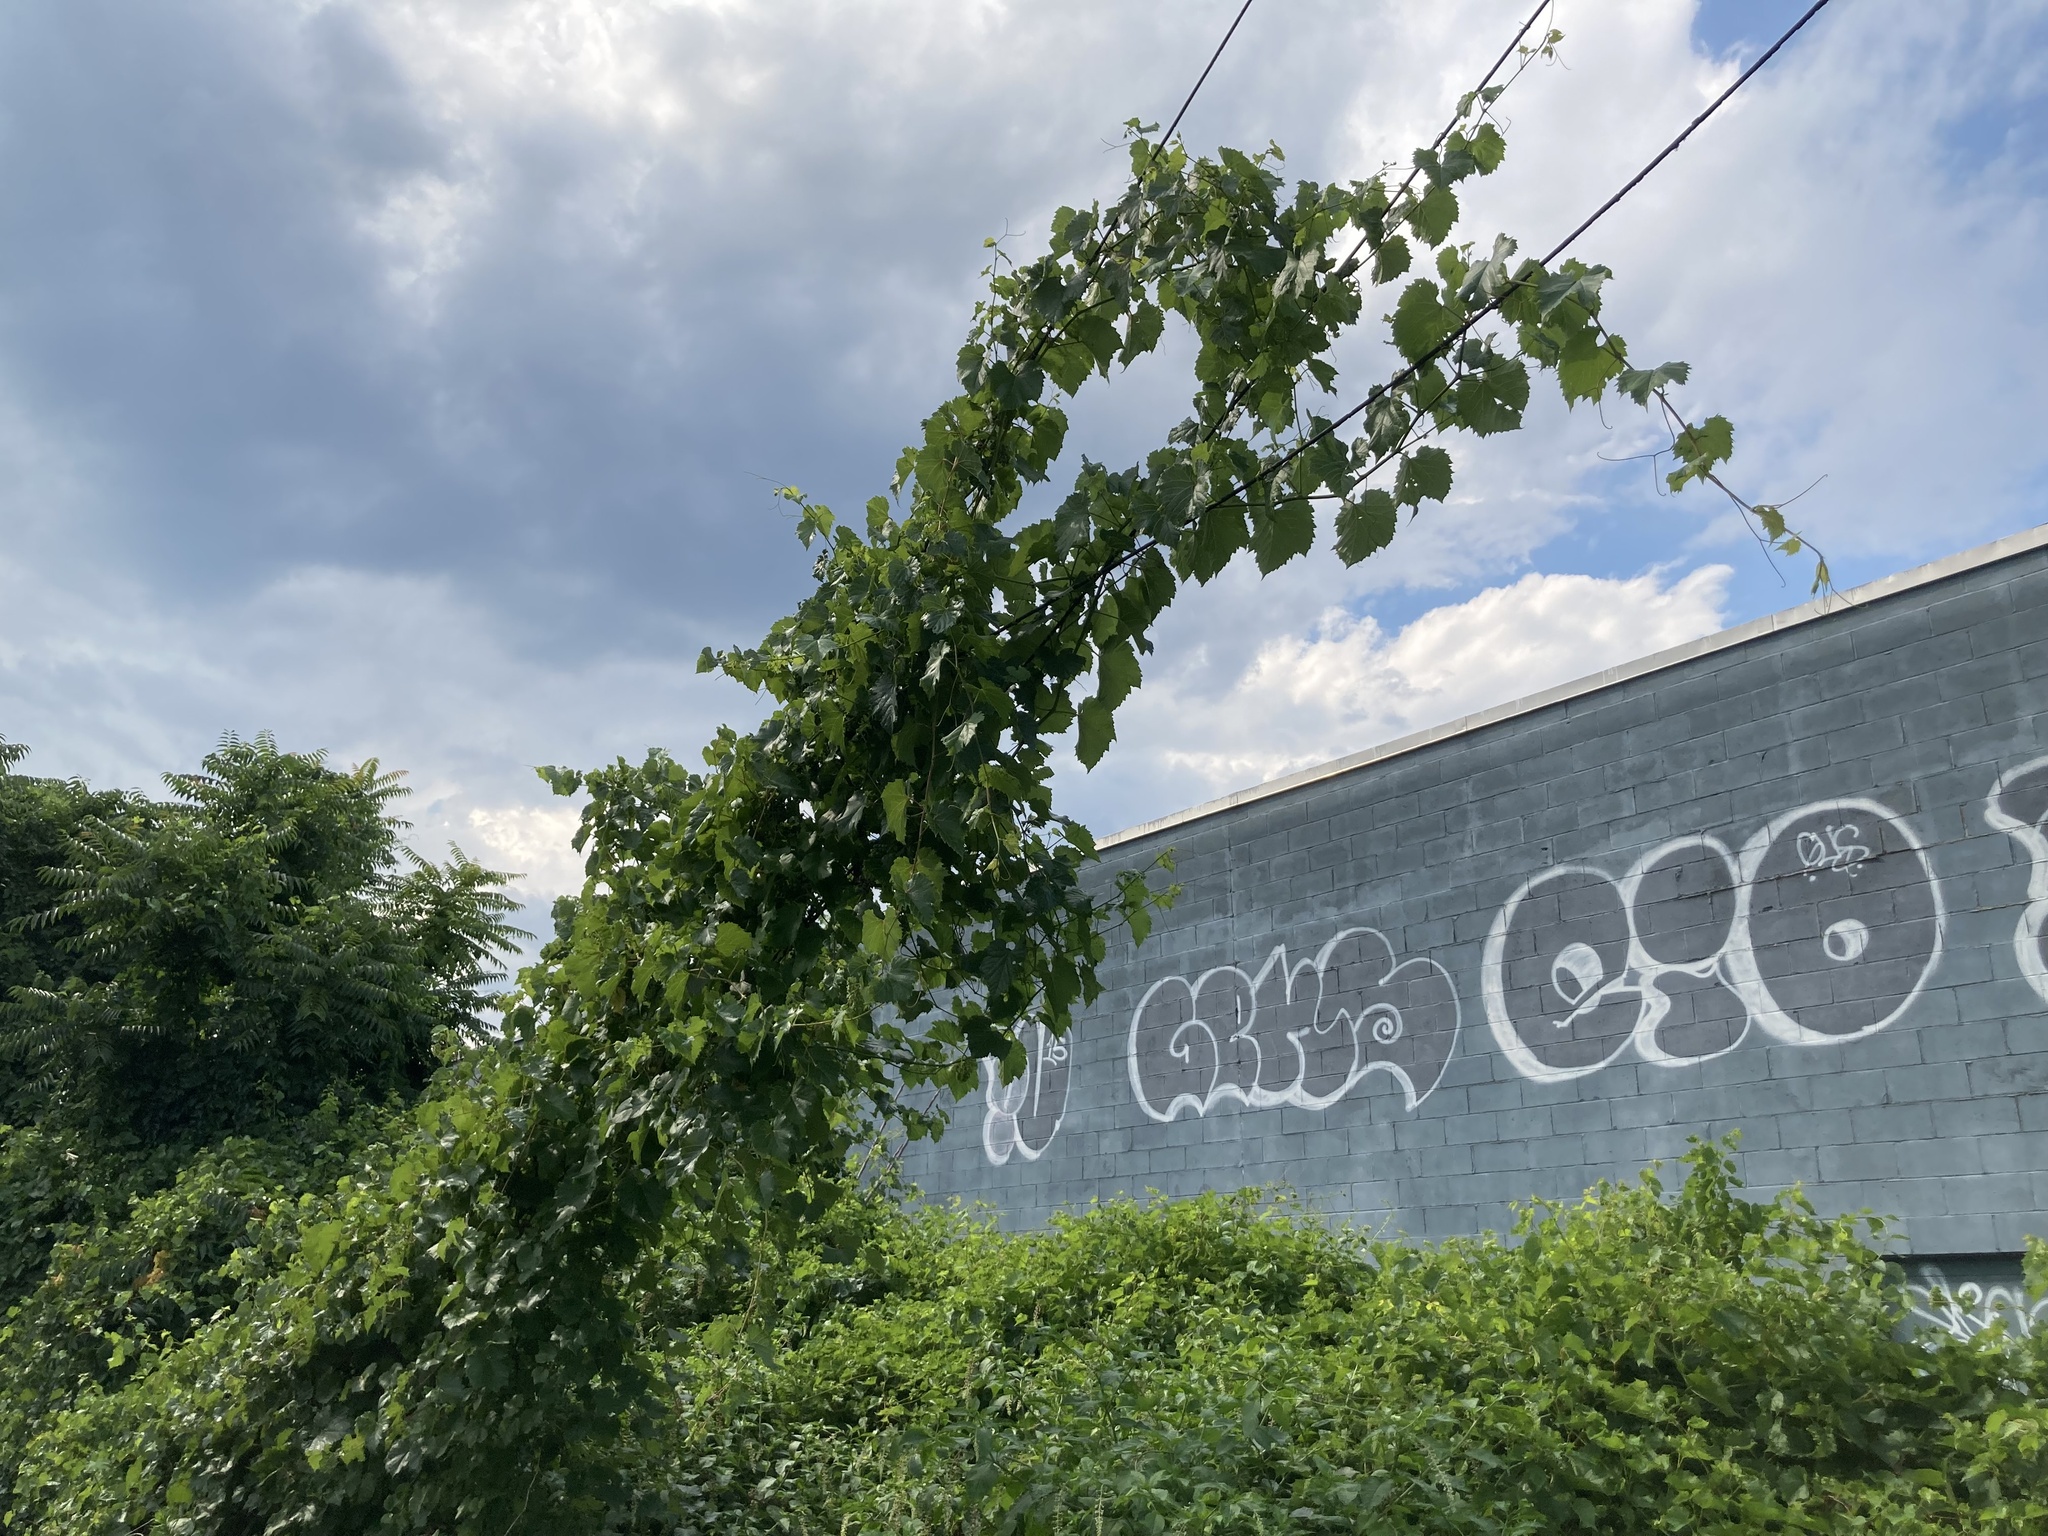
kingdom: Plantae
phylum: Tracheophyta
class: Magnoliopsida
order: Vitales
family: Vitaceae
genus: Vitis
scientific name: Vitis
